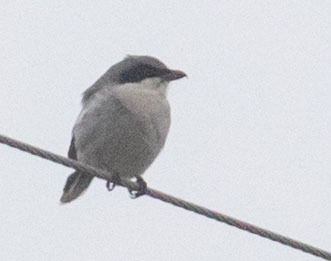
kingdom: Animalia
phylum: Chordata
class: Aves
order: Passeriformes
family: Laniidae
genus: Lanius
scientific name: Lanius ludovicianus
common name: Loggerhead shrike
